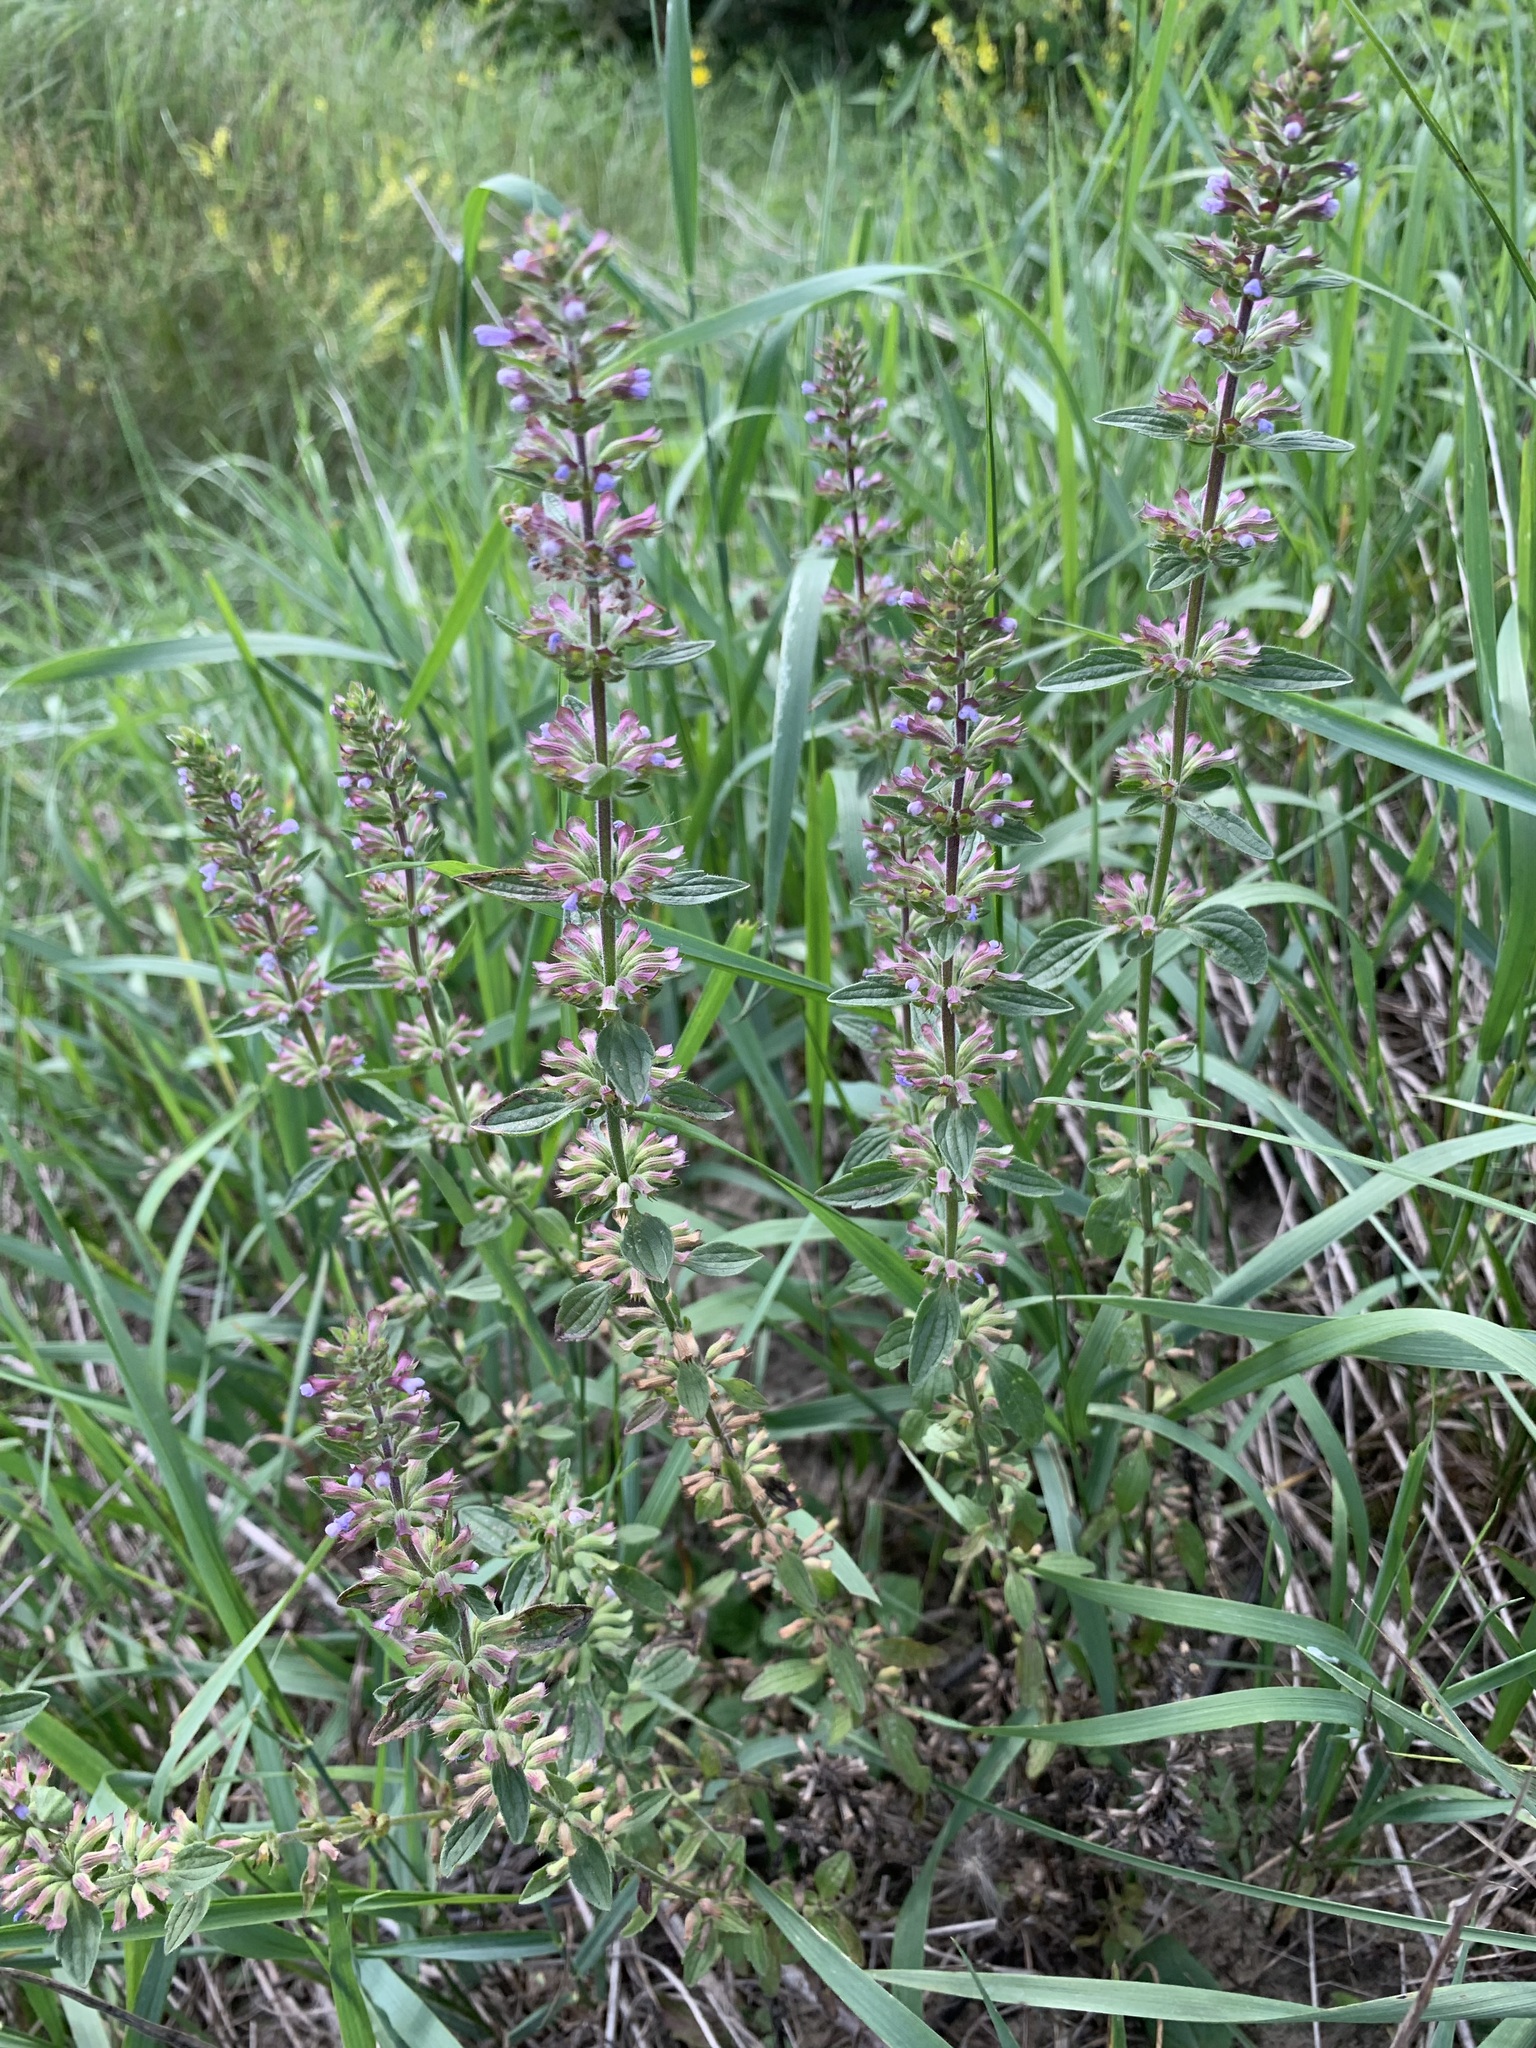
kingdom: Plantae
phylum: Tracheophyta
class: Magnoliopsida
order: Lamiales
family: Lamiaceae
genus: Dracocephalum
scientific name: Dracocephalum thymiflorum
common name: Thymeleaf dragonhead
